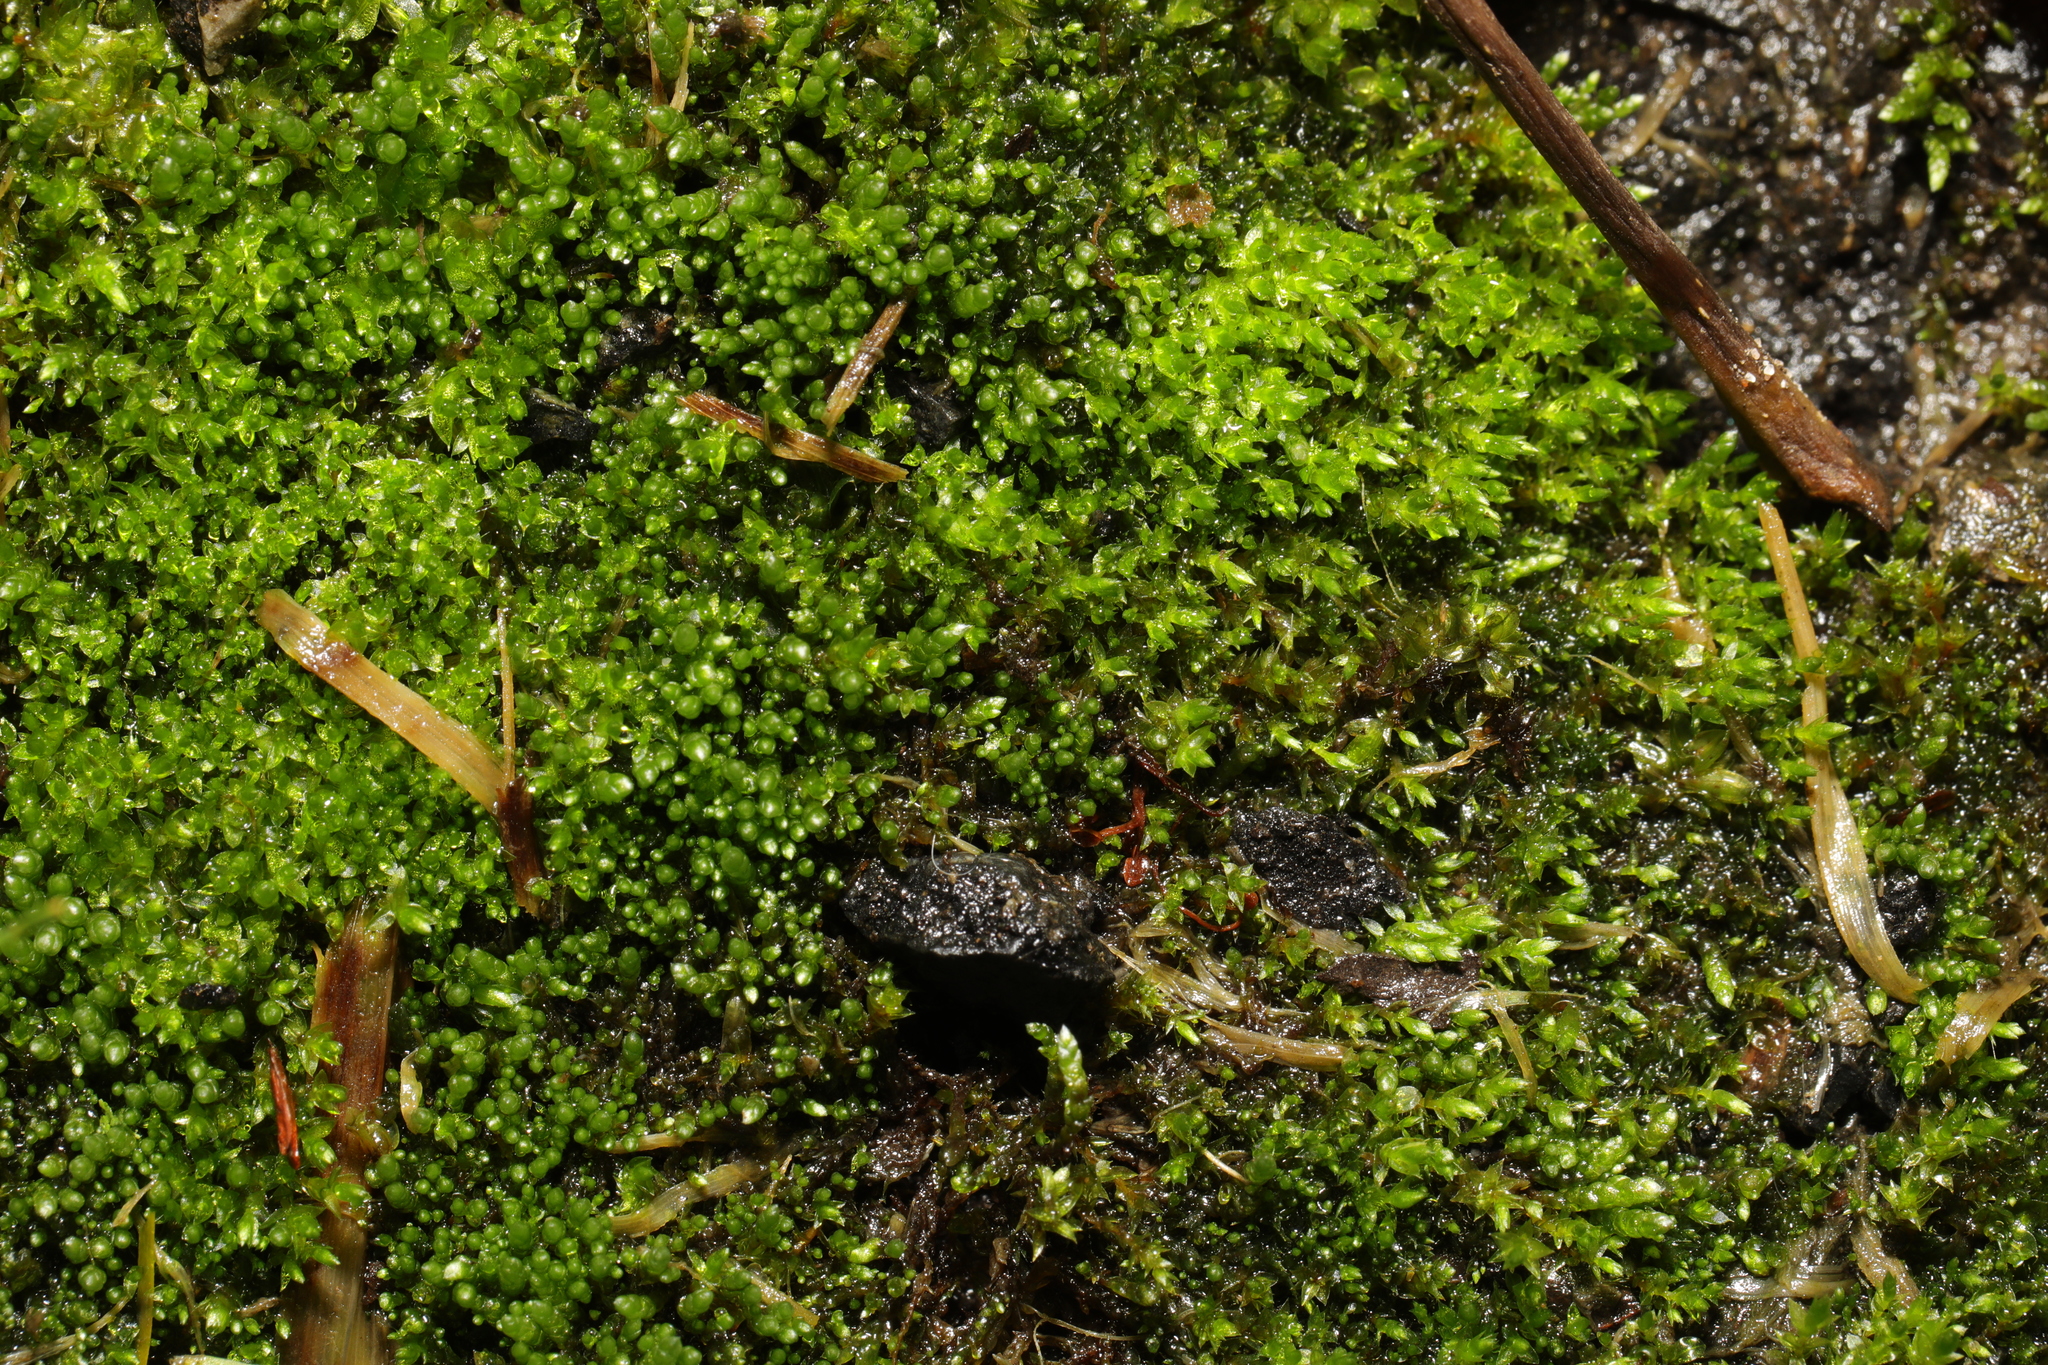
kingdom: Plantae
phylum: Bryophyta
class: Bryopsida
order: Bryales
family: Bryaceae
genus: Bryum
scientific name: Bryum argenteum
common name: Silver-moss
